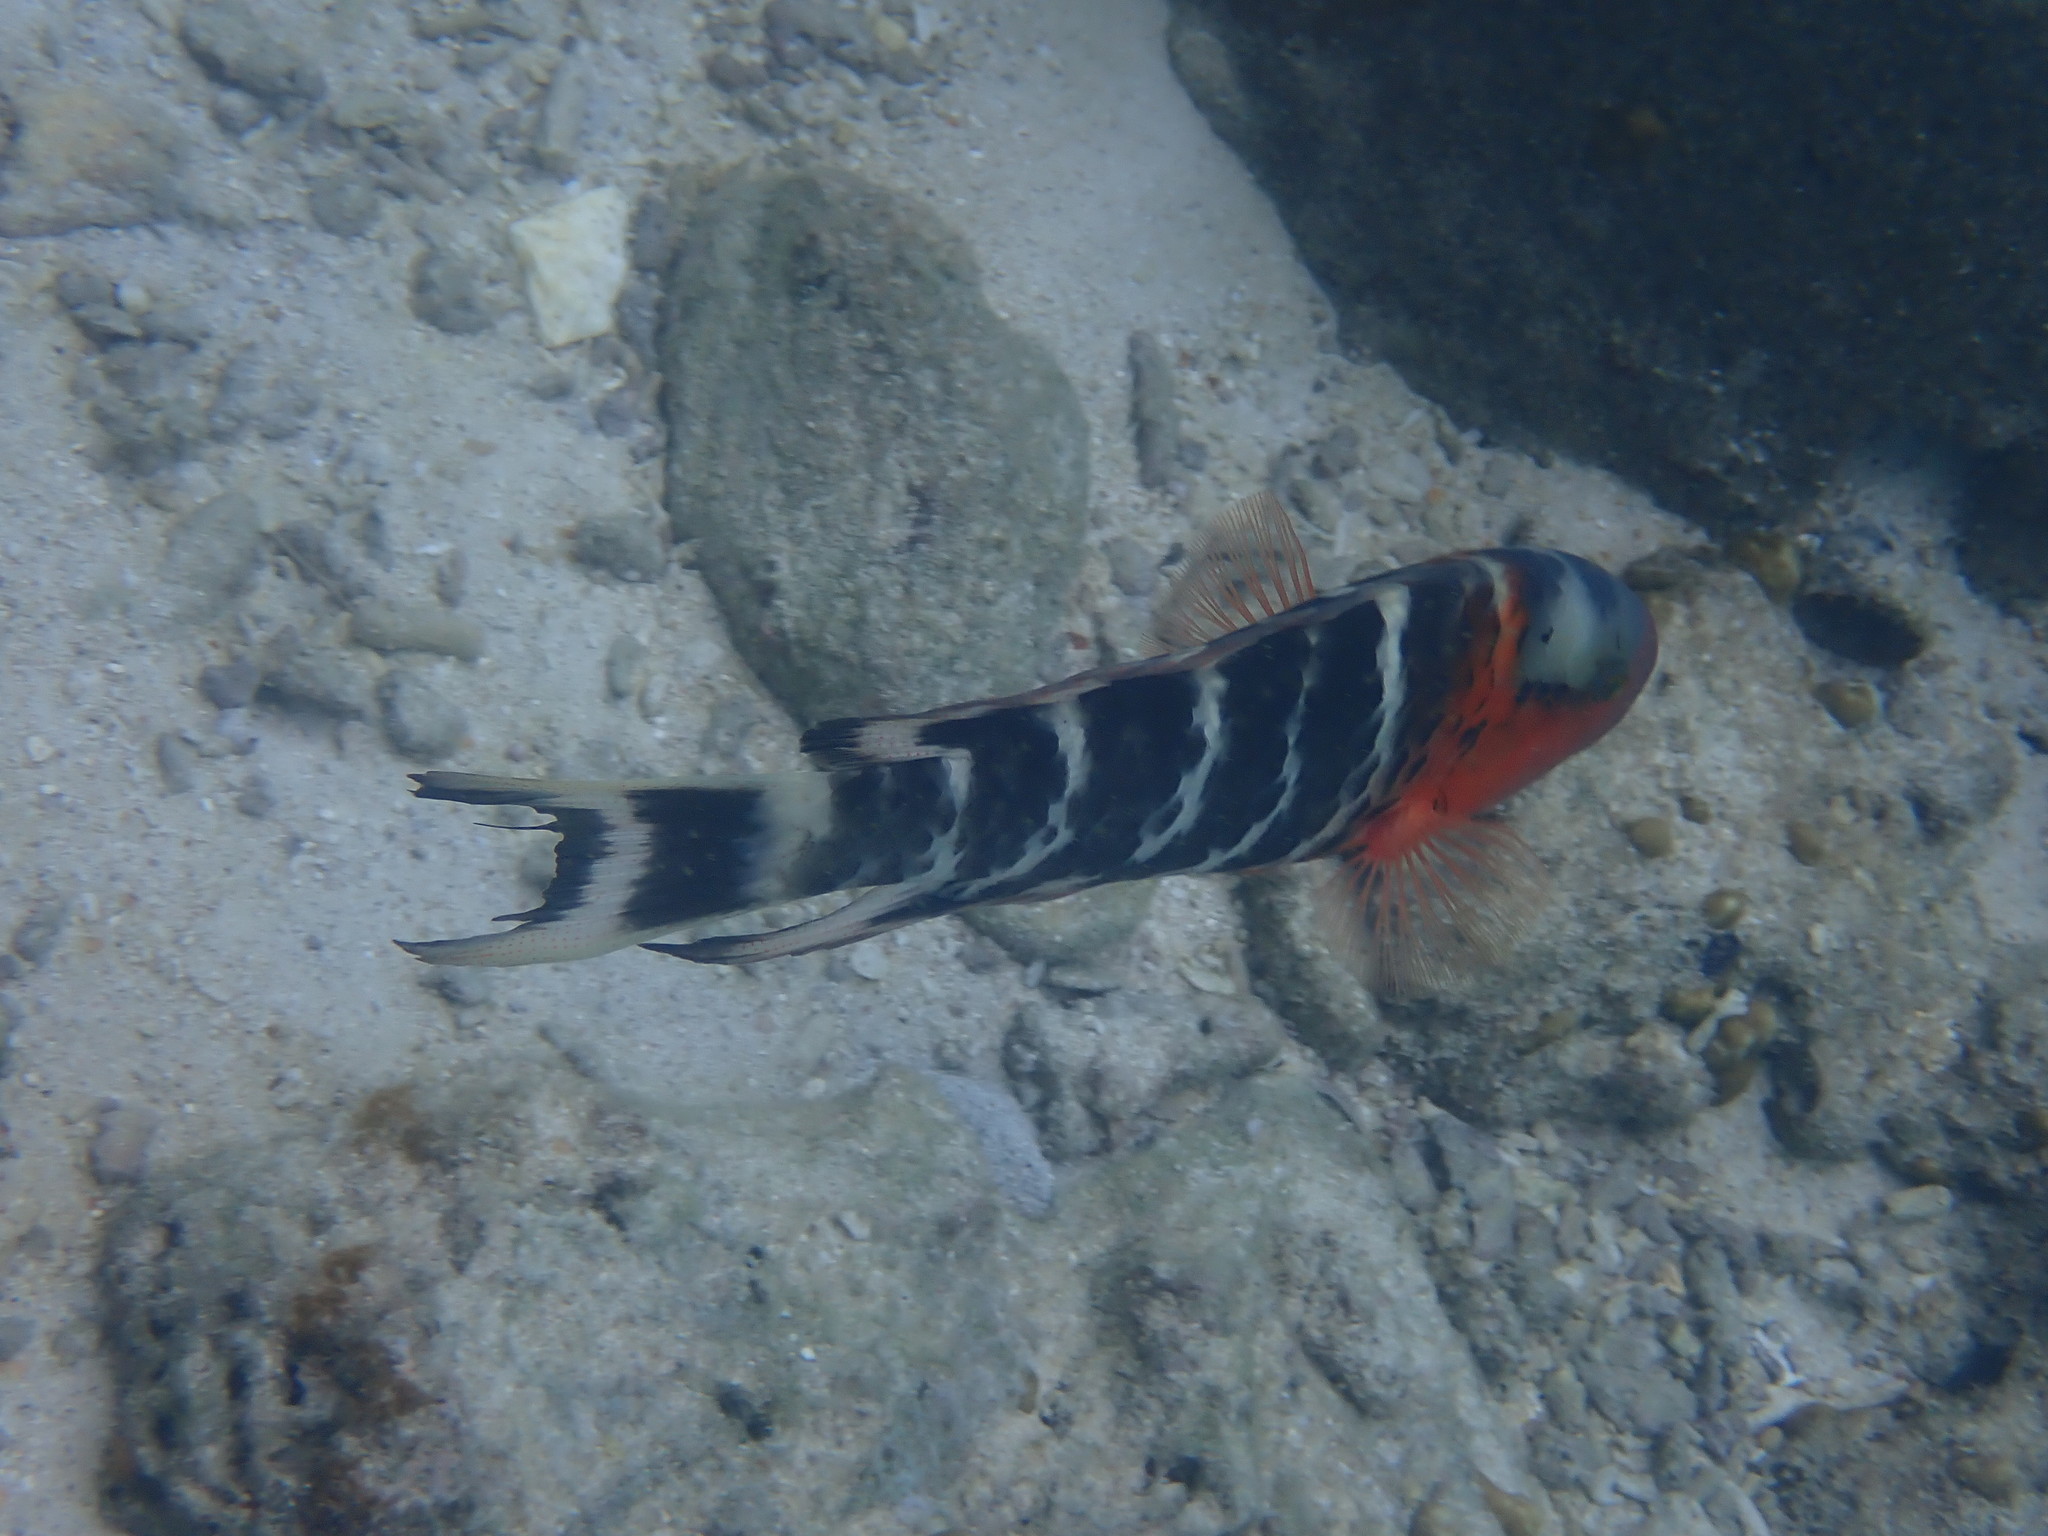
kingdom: Animalia
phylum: Chordata
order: Perciformes
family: Labridae
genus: Cheilinus
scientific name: Cheilinus fasciatus
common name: Red-breasted wrasse
